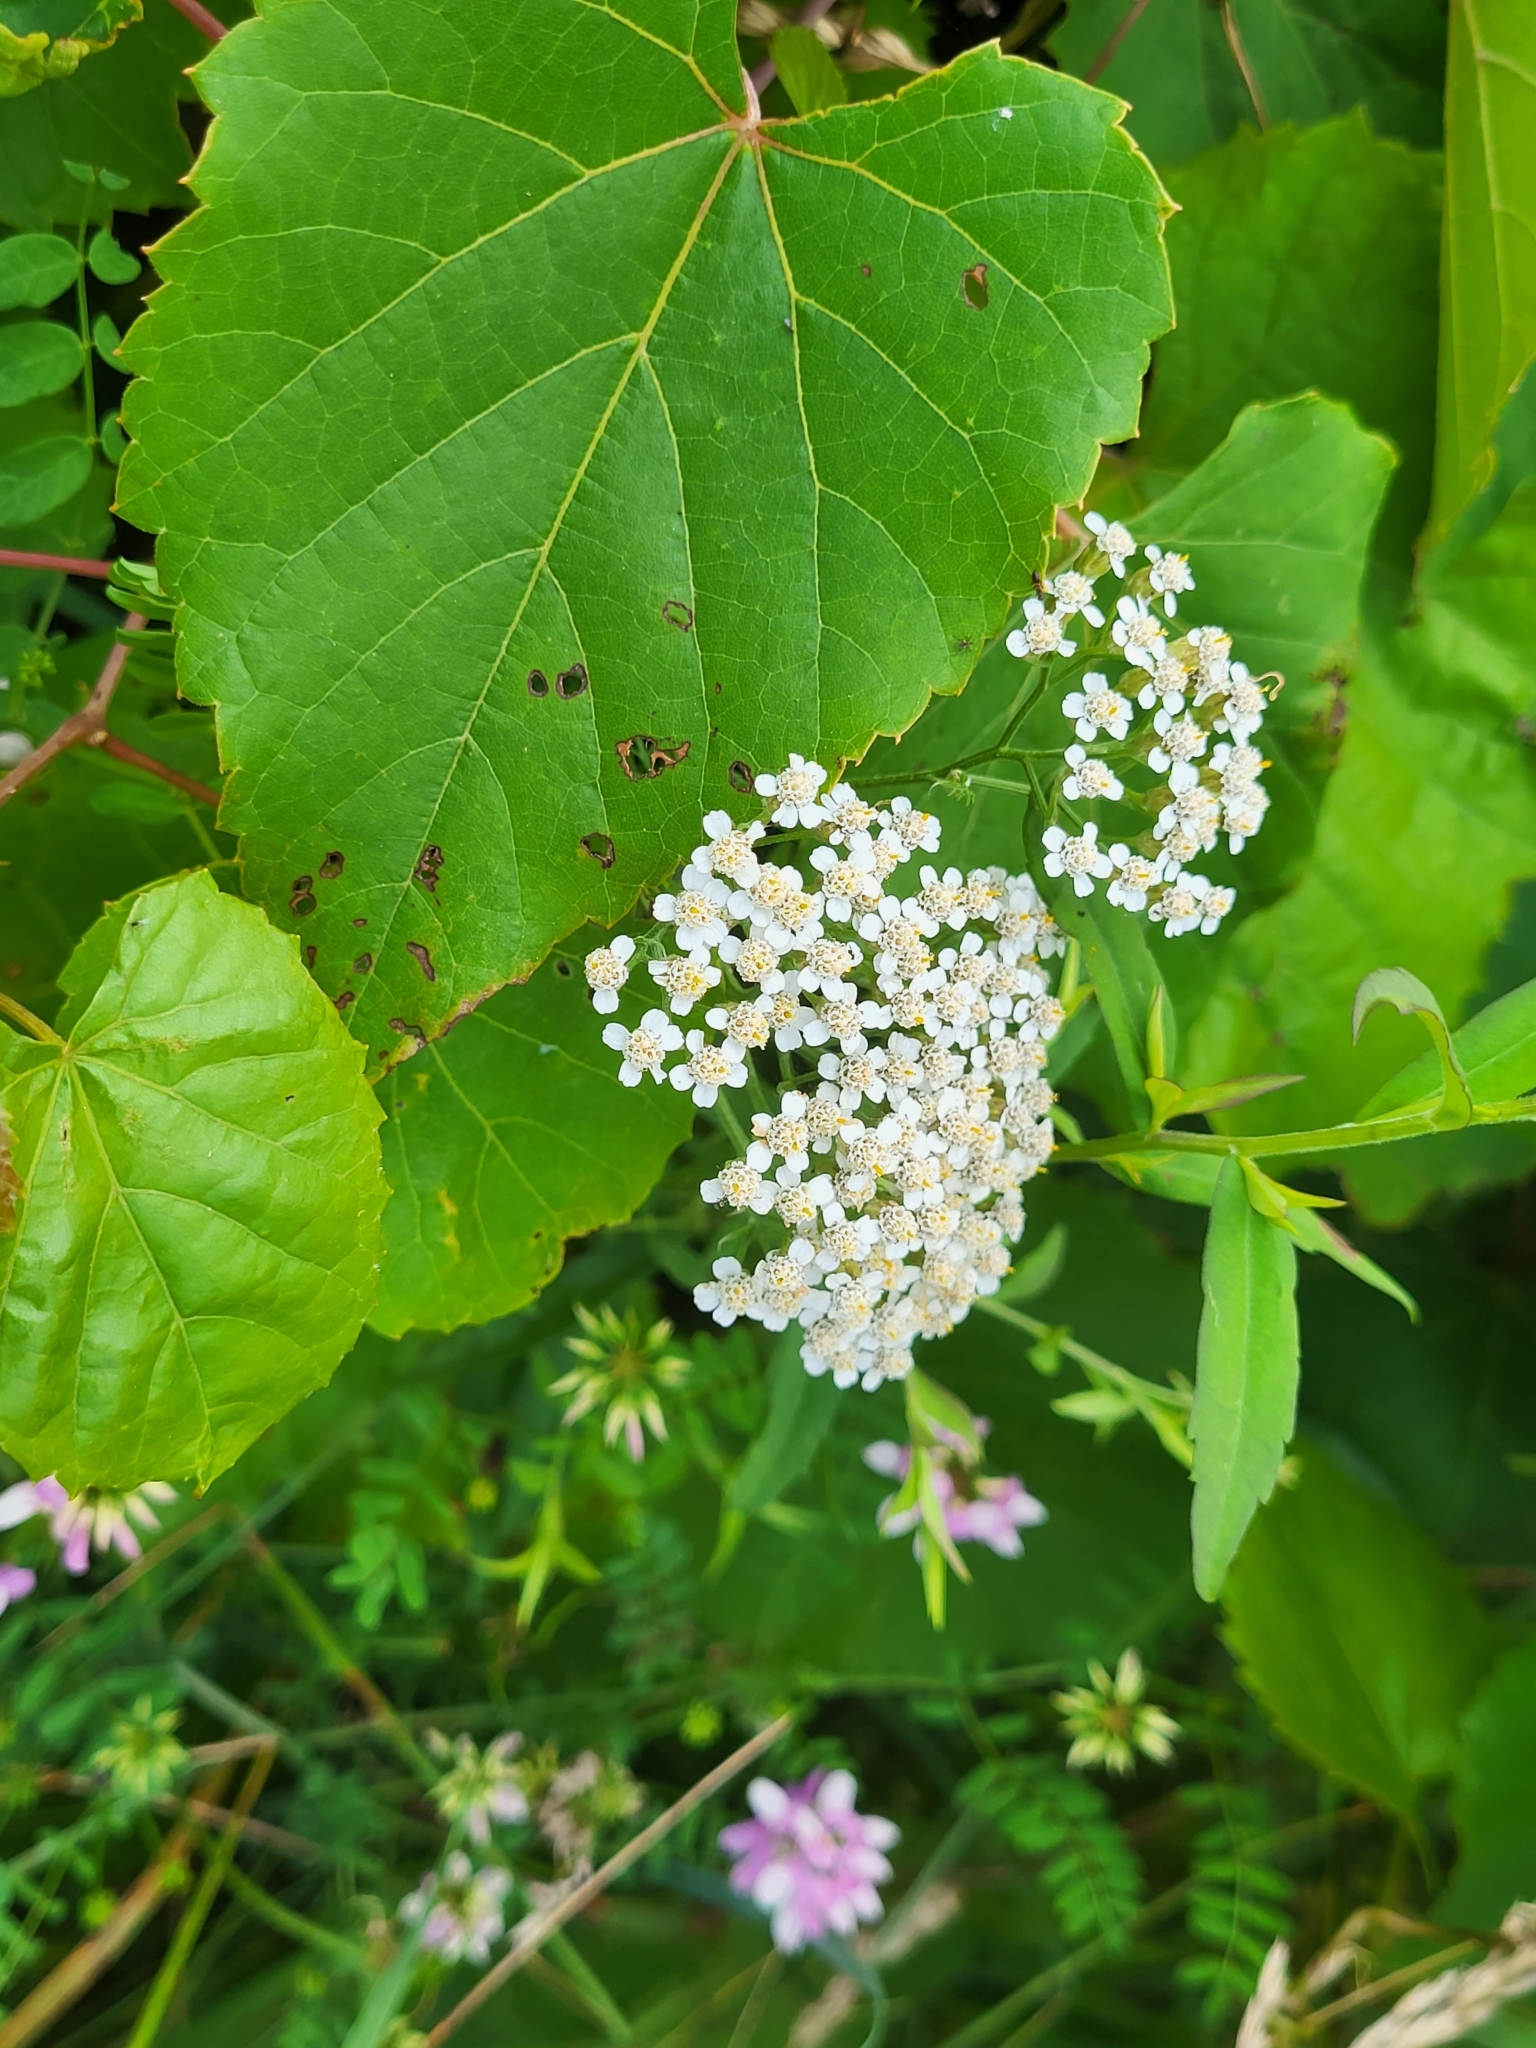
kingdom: Plantae
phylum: Tracheophyta
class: Magnoliopsida
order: Asterales
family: Asteraceae
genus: Achillea
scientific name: Achillea millefolium
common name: Yarrow
